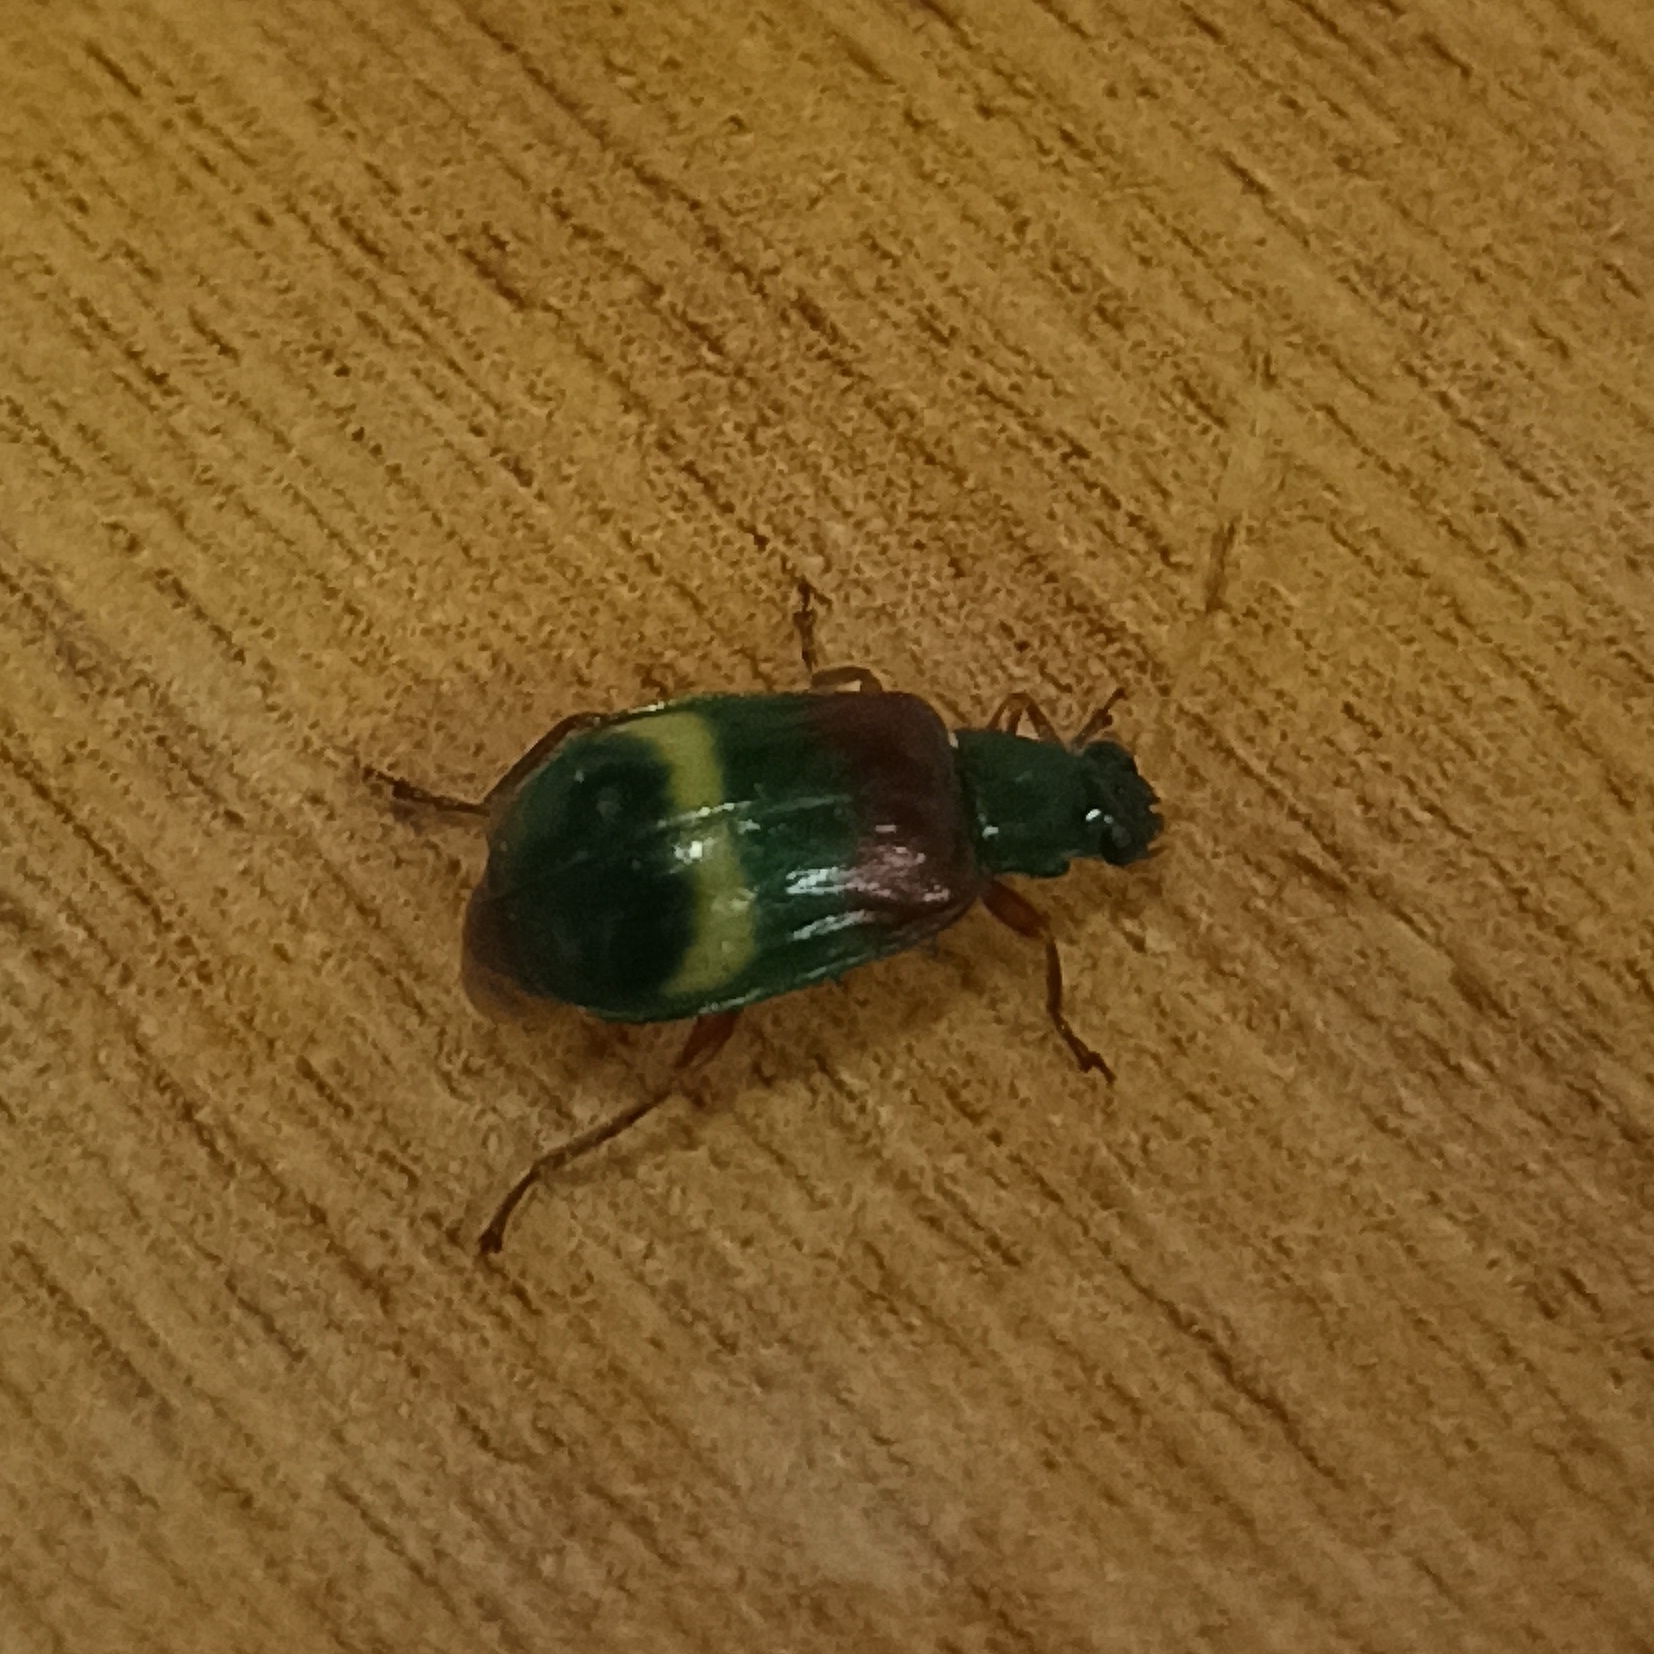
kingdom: Animalia
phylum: Arthropoda
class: Insecta
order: Coleoptera
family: Chrysomelidae
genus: Charidotella
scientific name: Charidotella amoenula
